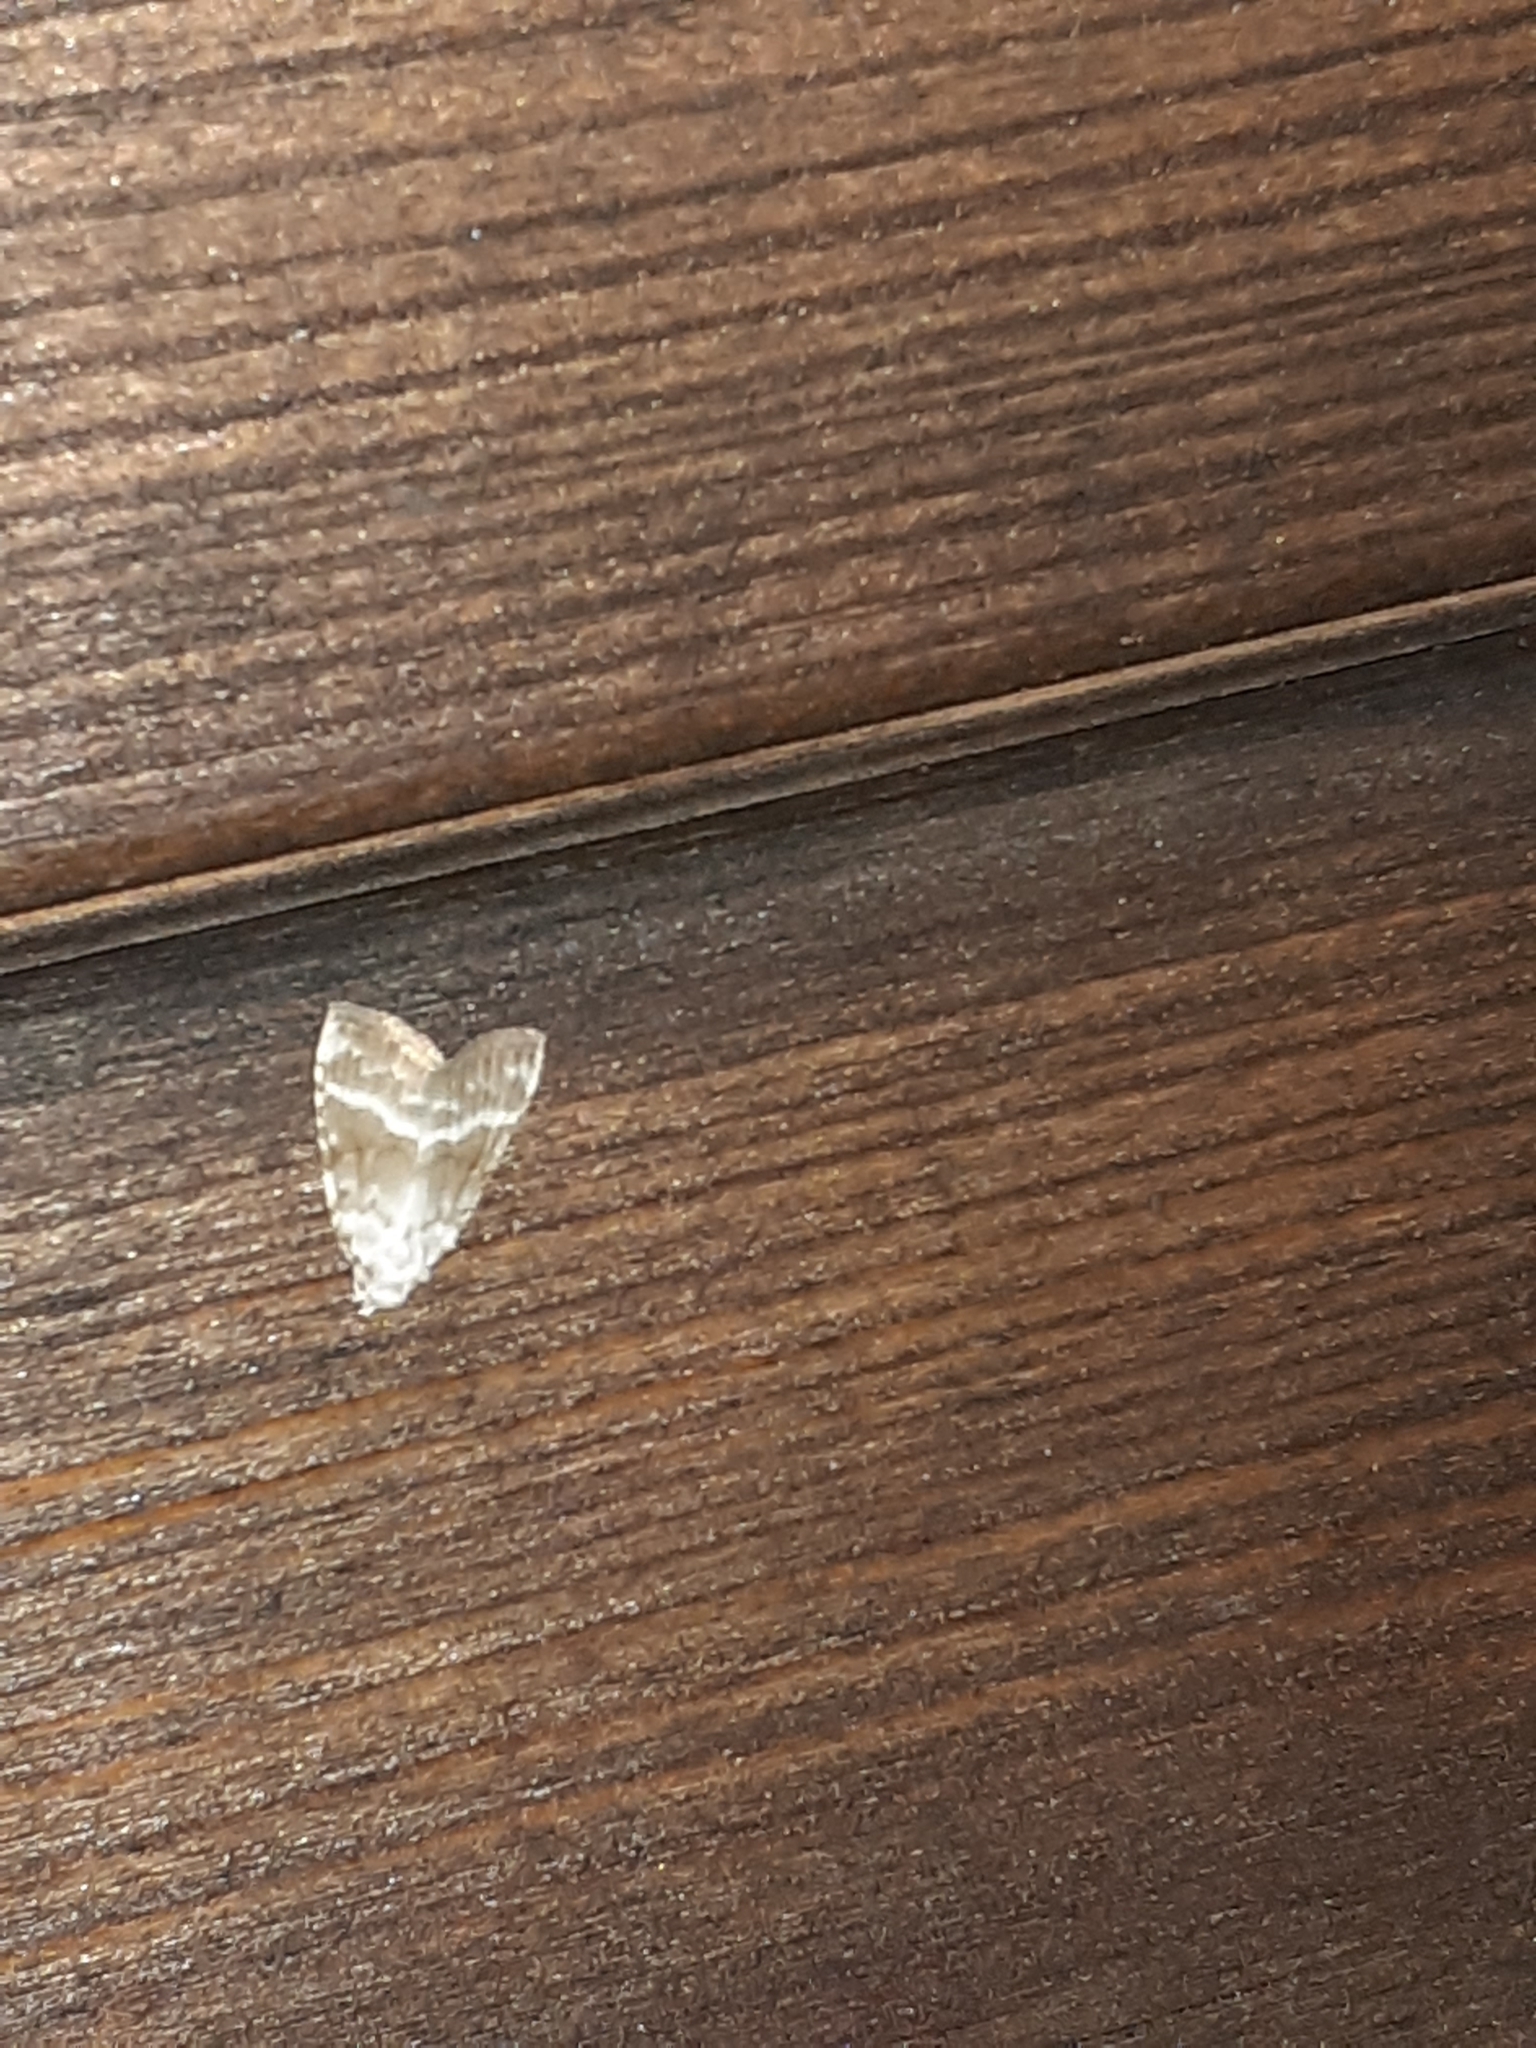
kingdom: Animalia
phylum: Arthropoda
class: Insecta
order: Lepidoptera
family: Nolidae
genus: Meganola
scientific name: Meganola albula
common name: Kent black arches
